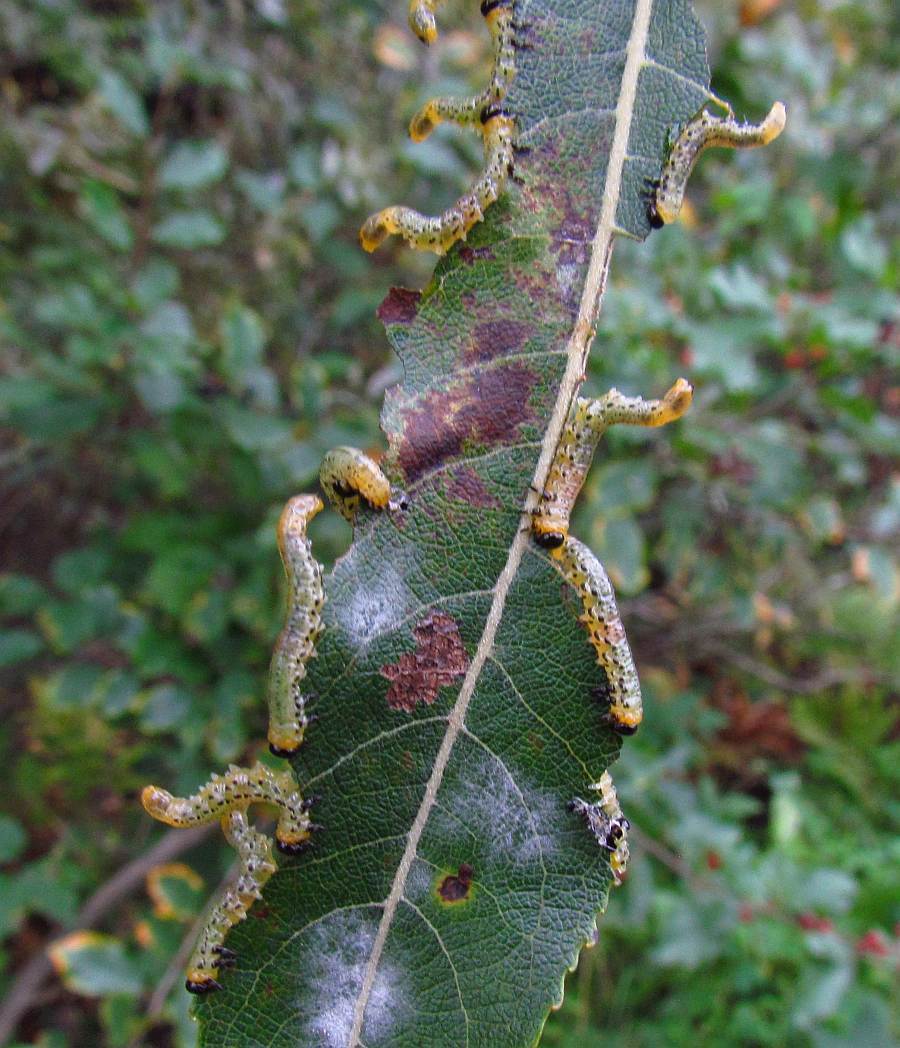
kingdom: Animalia
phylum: Arthropoda
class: Insecta
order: Hymenoptera
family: Tenthredinidae
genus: Nematus
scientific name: Nematus
